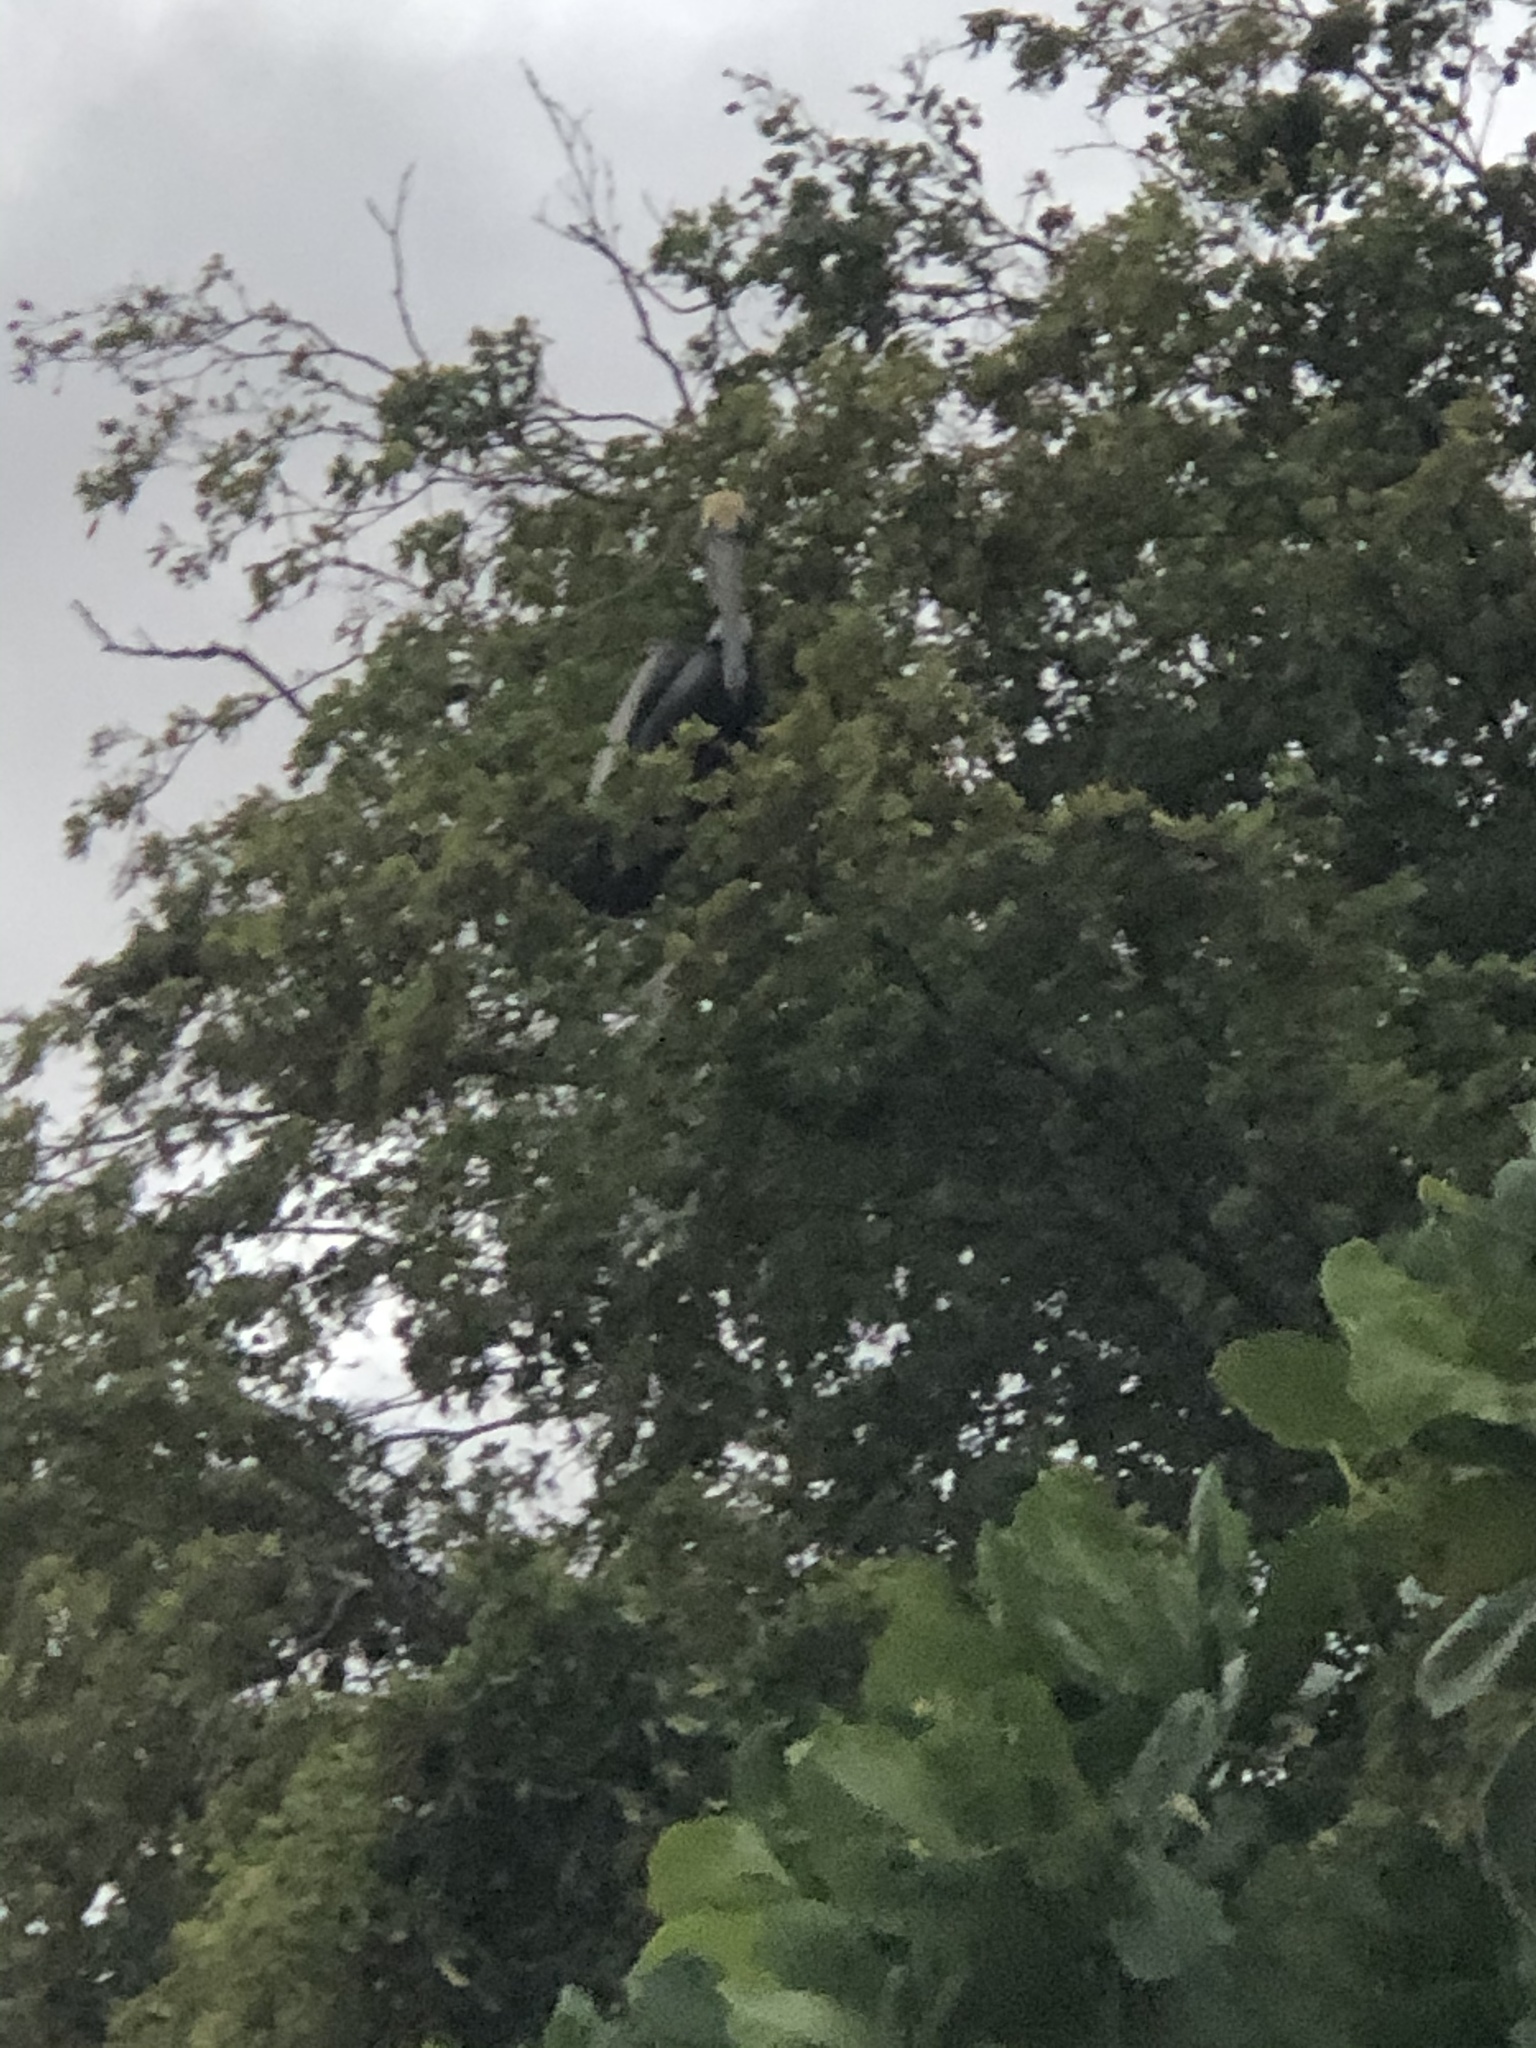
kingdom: Animalia
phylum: Chordata
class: Aves
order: Pelecaniformes
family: Pelecanidae
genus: Pelecanus
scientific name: Pelecanus occidentalis
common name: Brown pelican
